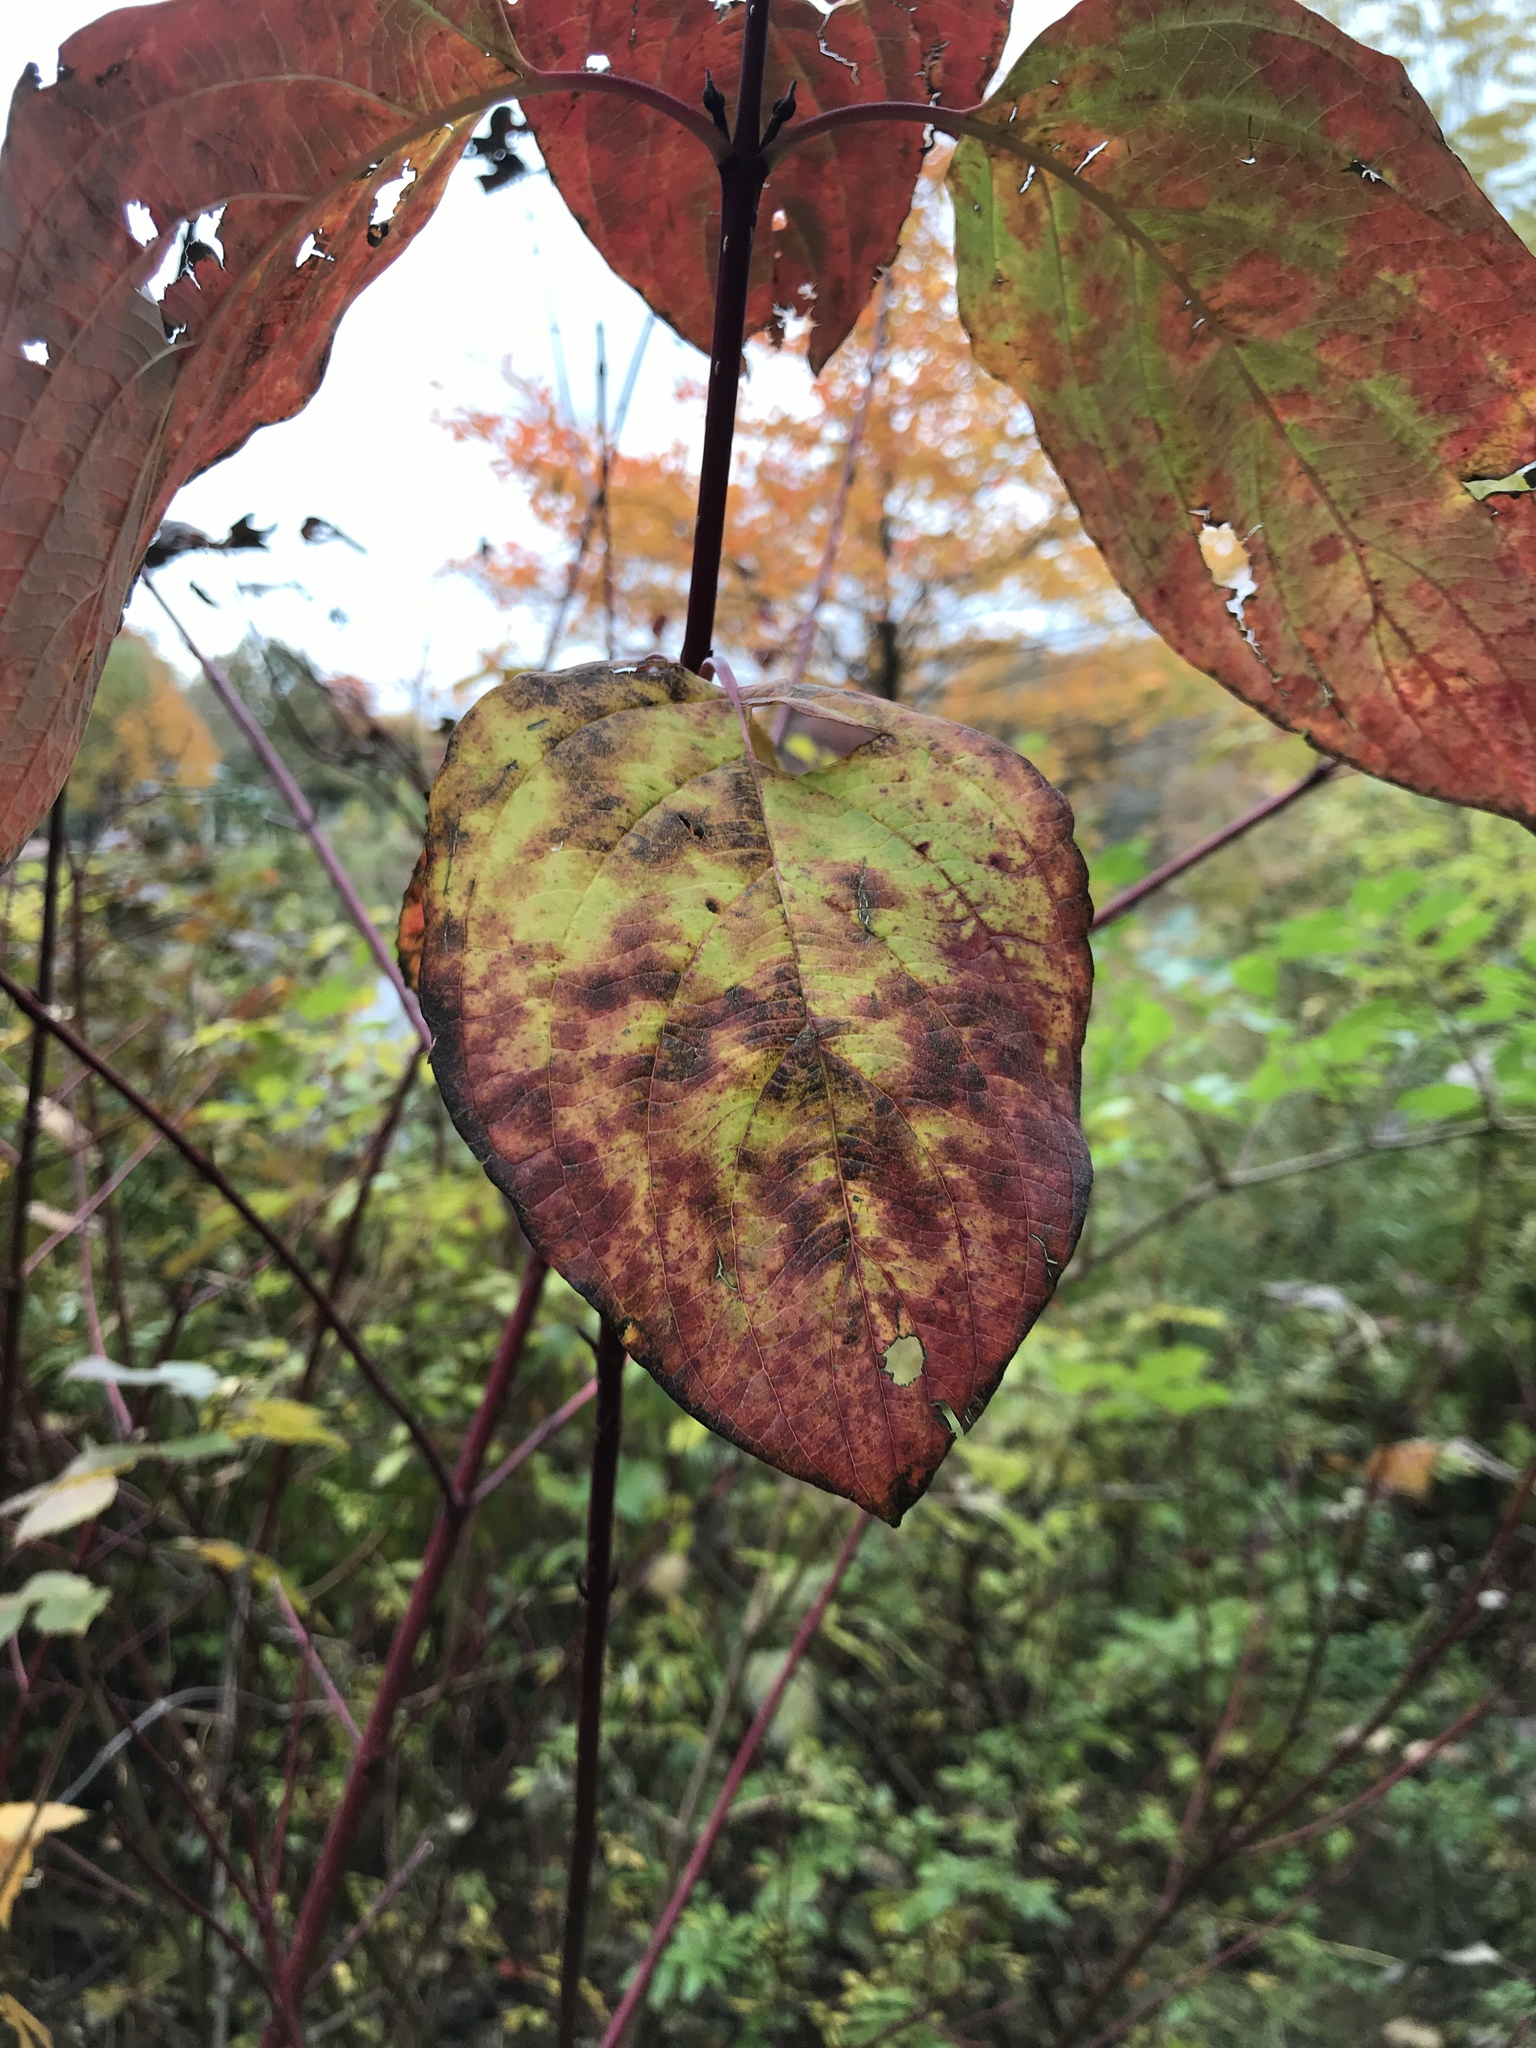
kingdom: Plantae
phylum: Tracheophyta
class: Magnoliopsida
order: Cornales
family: Cornaceae
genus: Cornus
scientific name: Cornus sericea
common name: Red-osier dogwood
